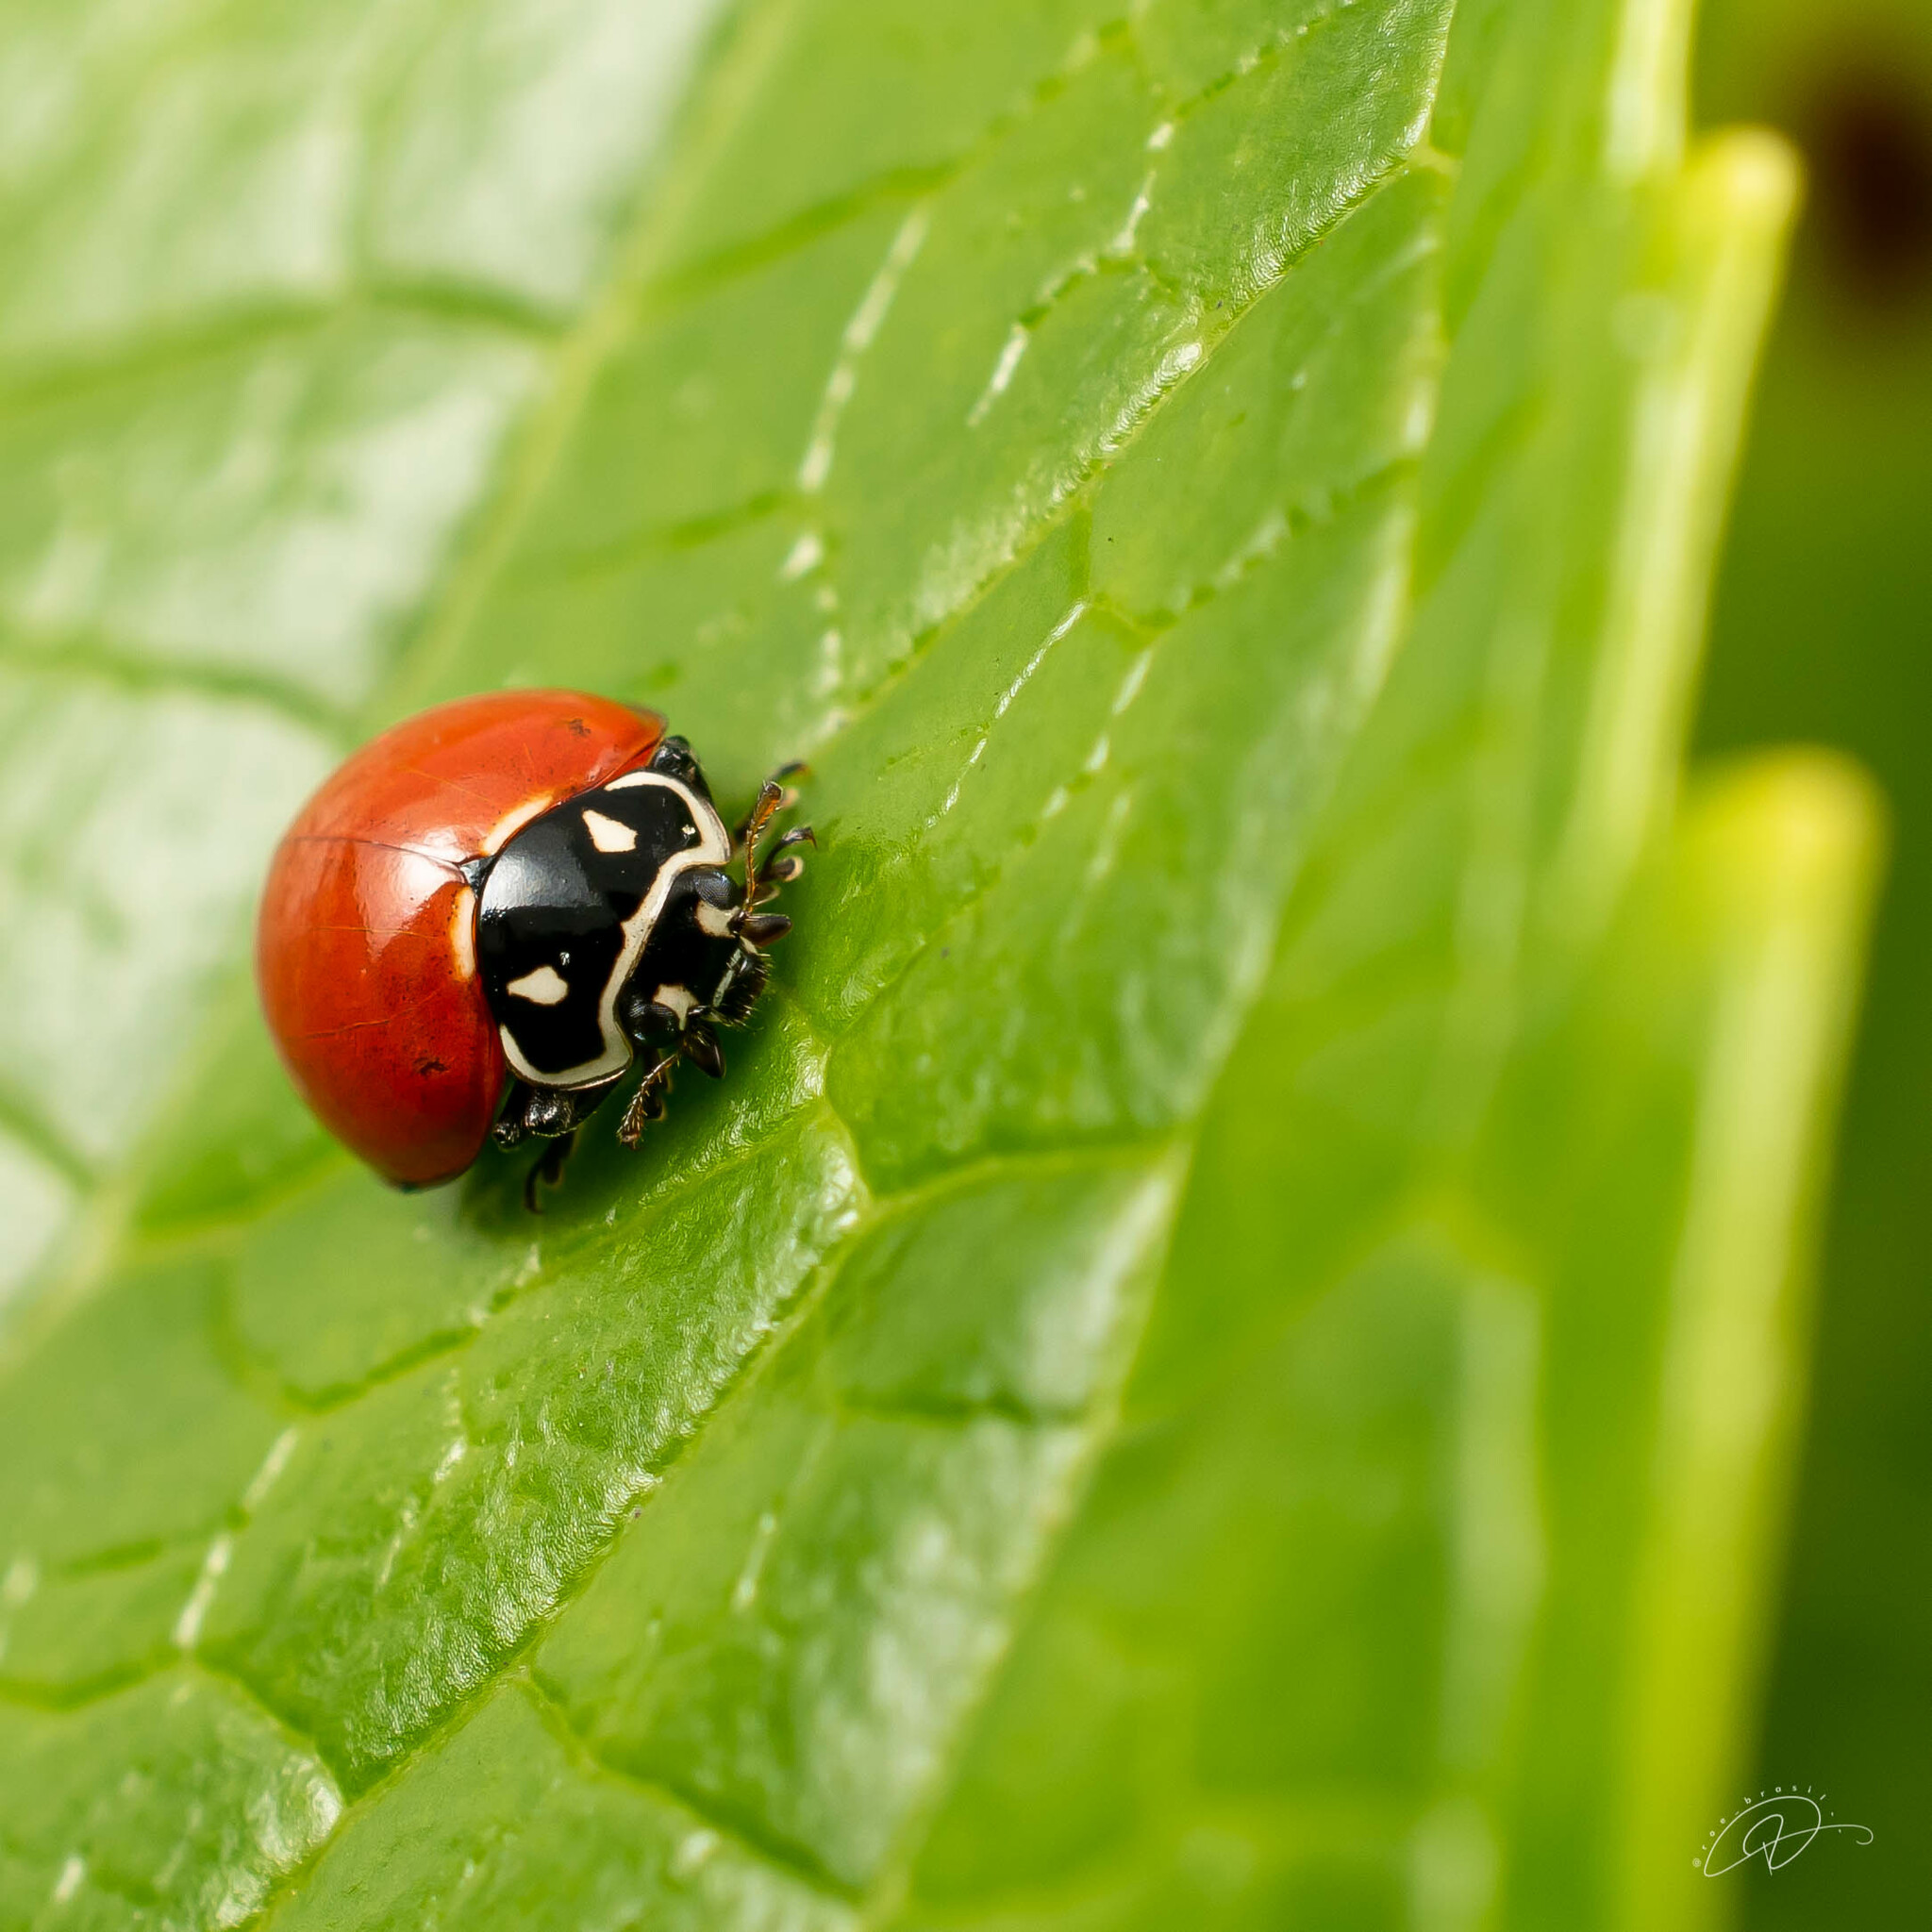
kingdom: Animalia
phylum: Arthropoda
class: Insecta
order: Coleoptera
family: Coccinellidae
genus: Cycloneda
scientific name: Cycloneda emarginata
